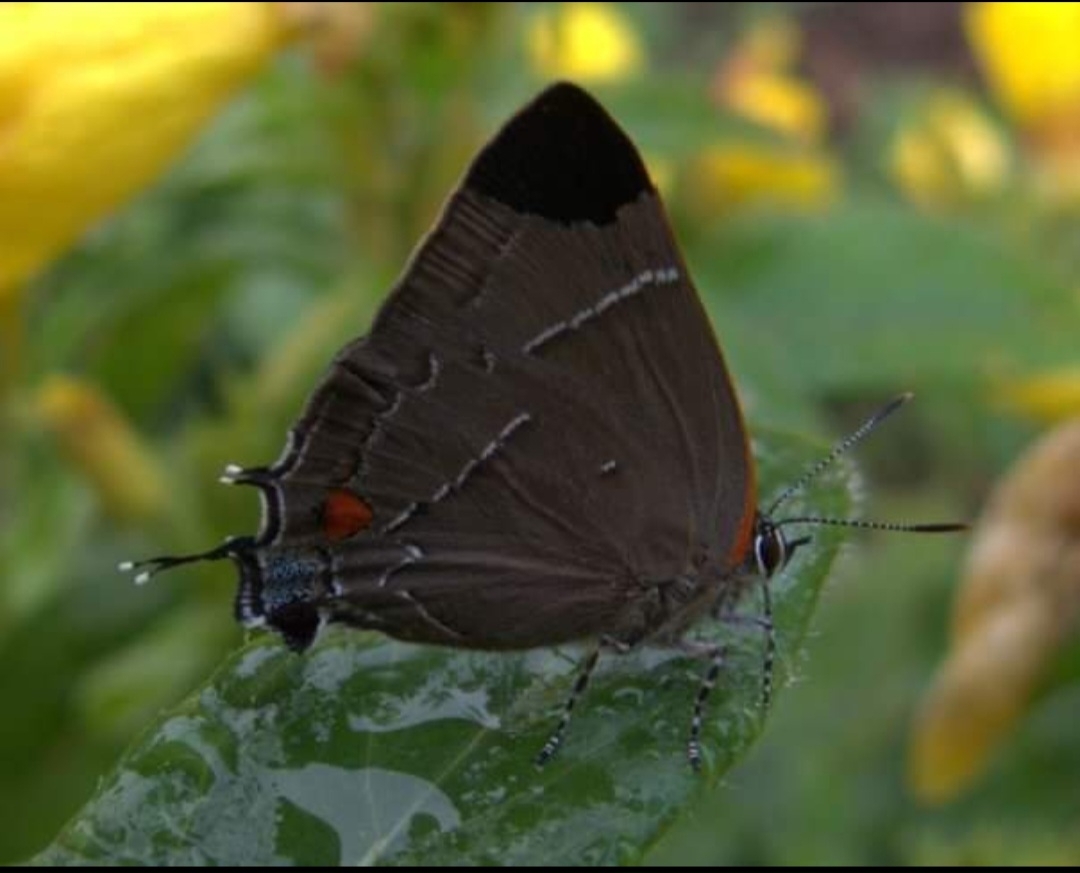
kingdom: Animalia
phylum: Arthropoda
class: Insecta
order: Lepidoptera
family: Lycaenidae
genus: Parrhasius
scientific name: Parrhasius m-album
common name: White m hairstreak
